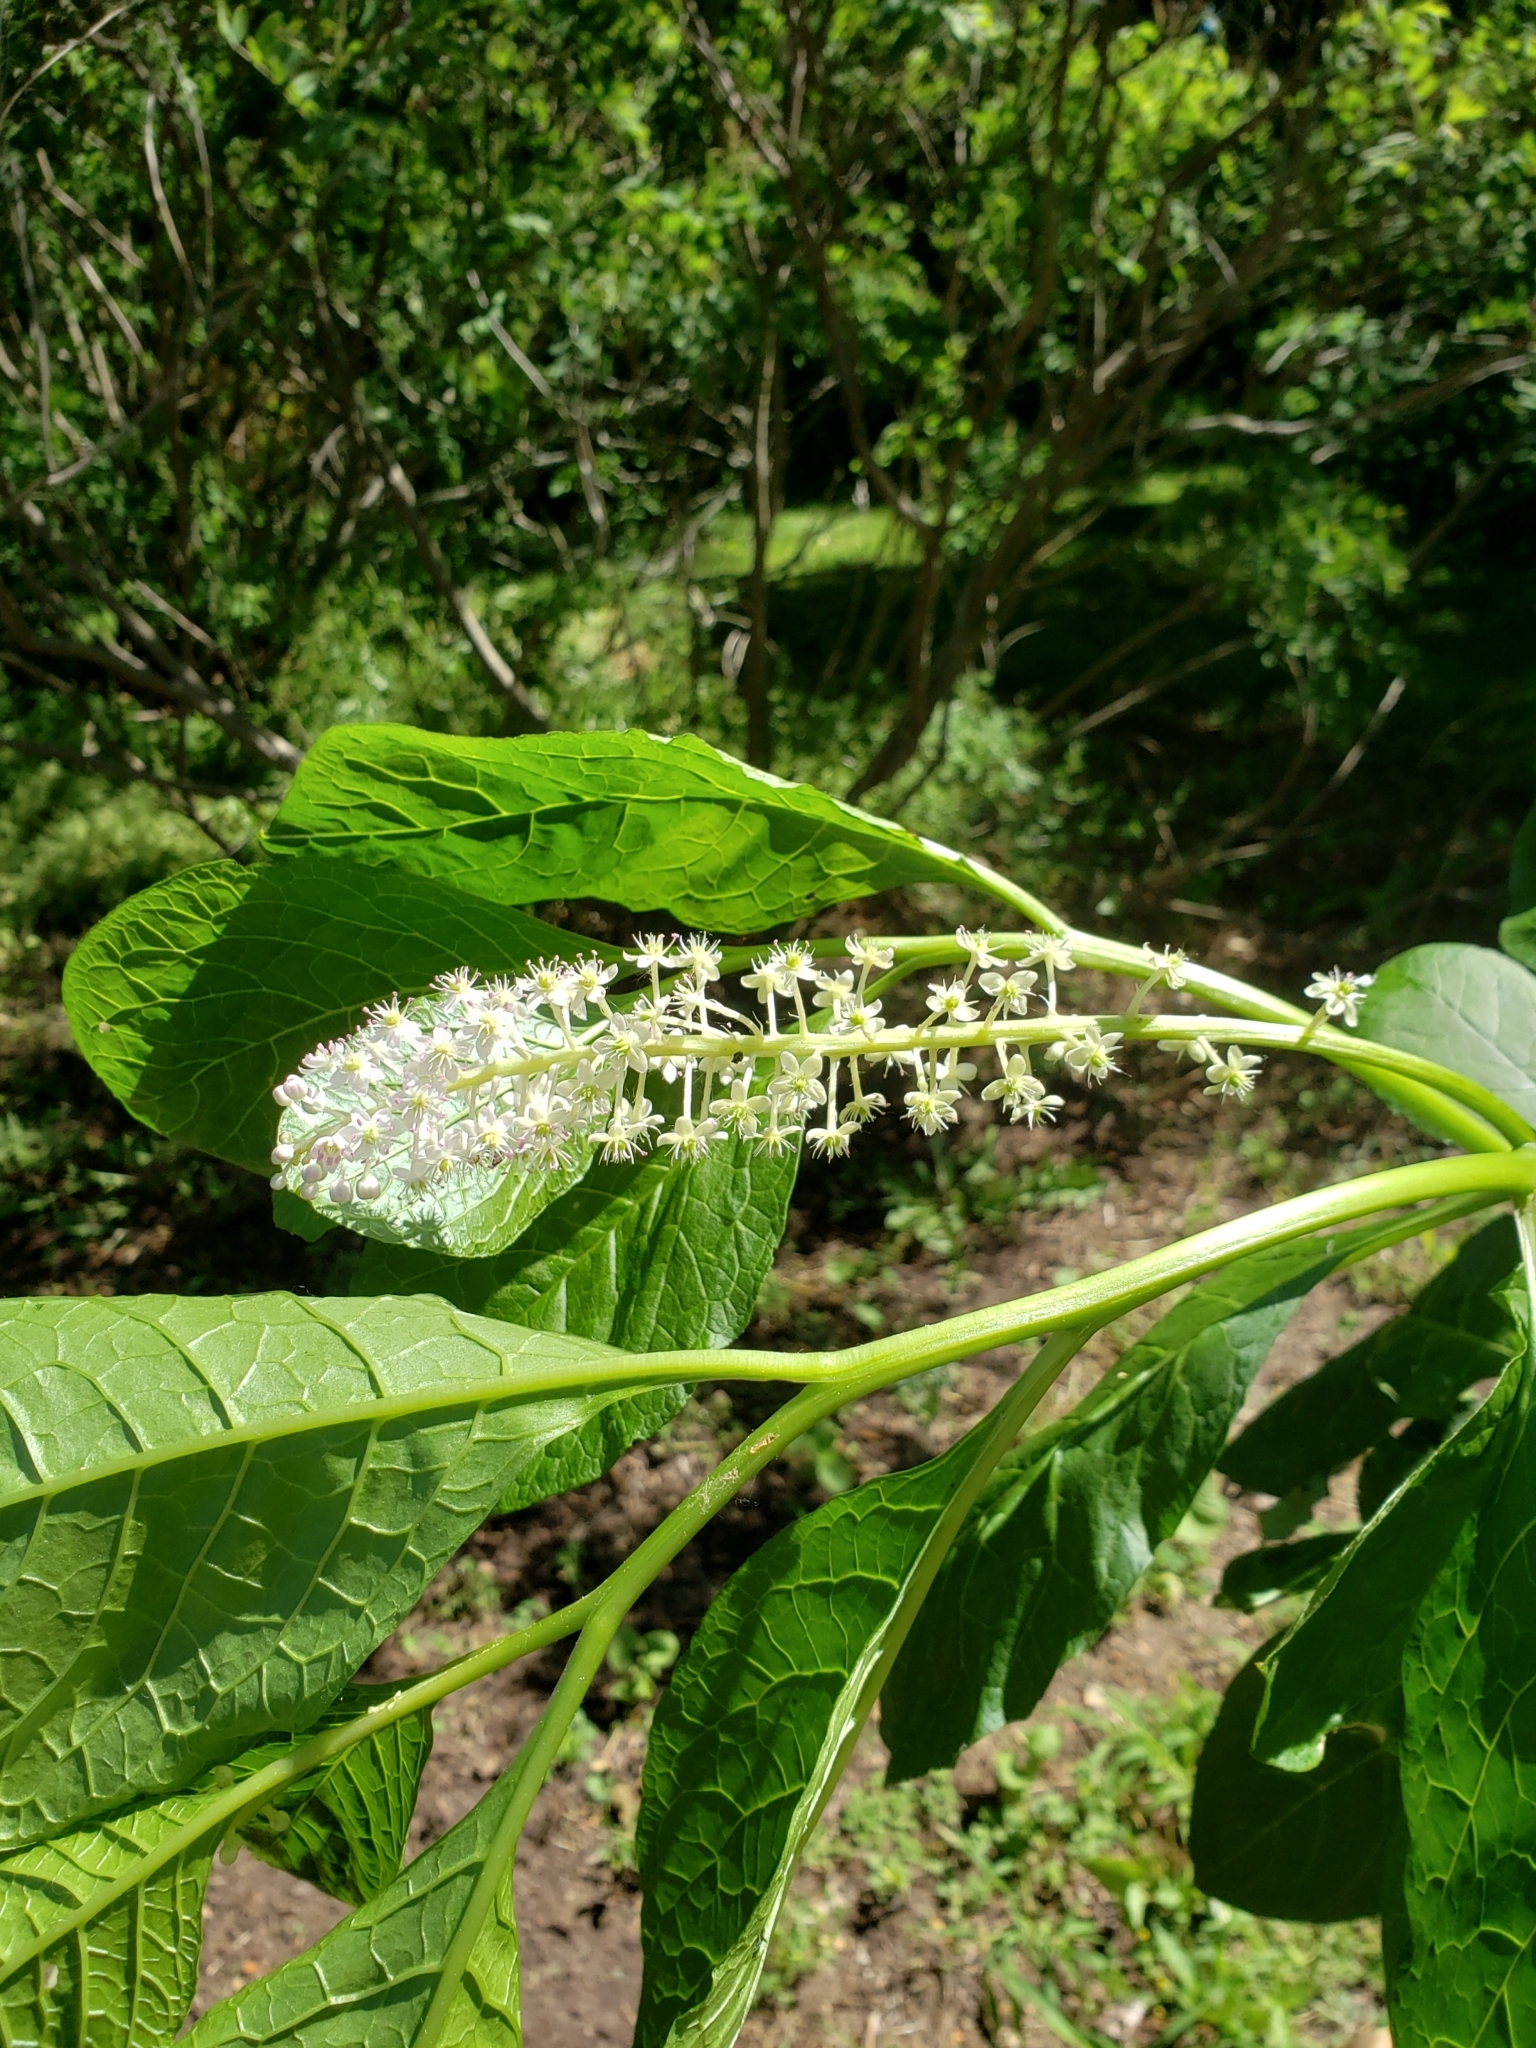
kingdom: Plantae
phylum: Tracheophyta
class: Magnoliopsida
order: Caryophyllales
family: Phytolaccaceae
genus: Phytolacca
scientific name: Phytolacca acinosa
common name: Indian pokeweed
